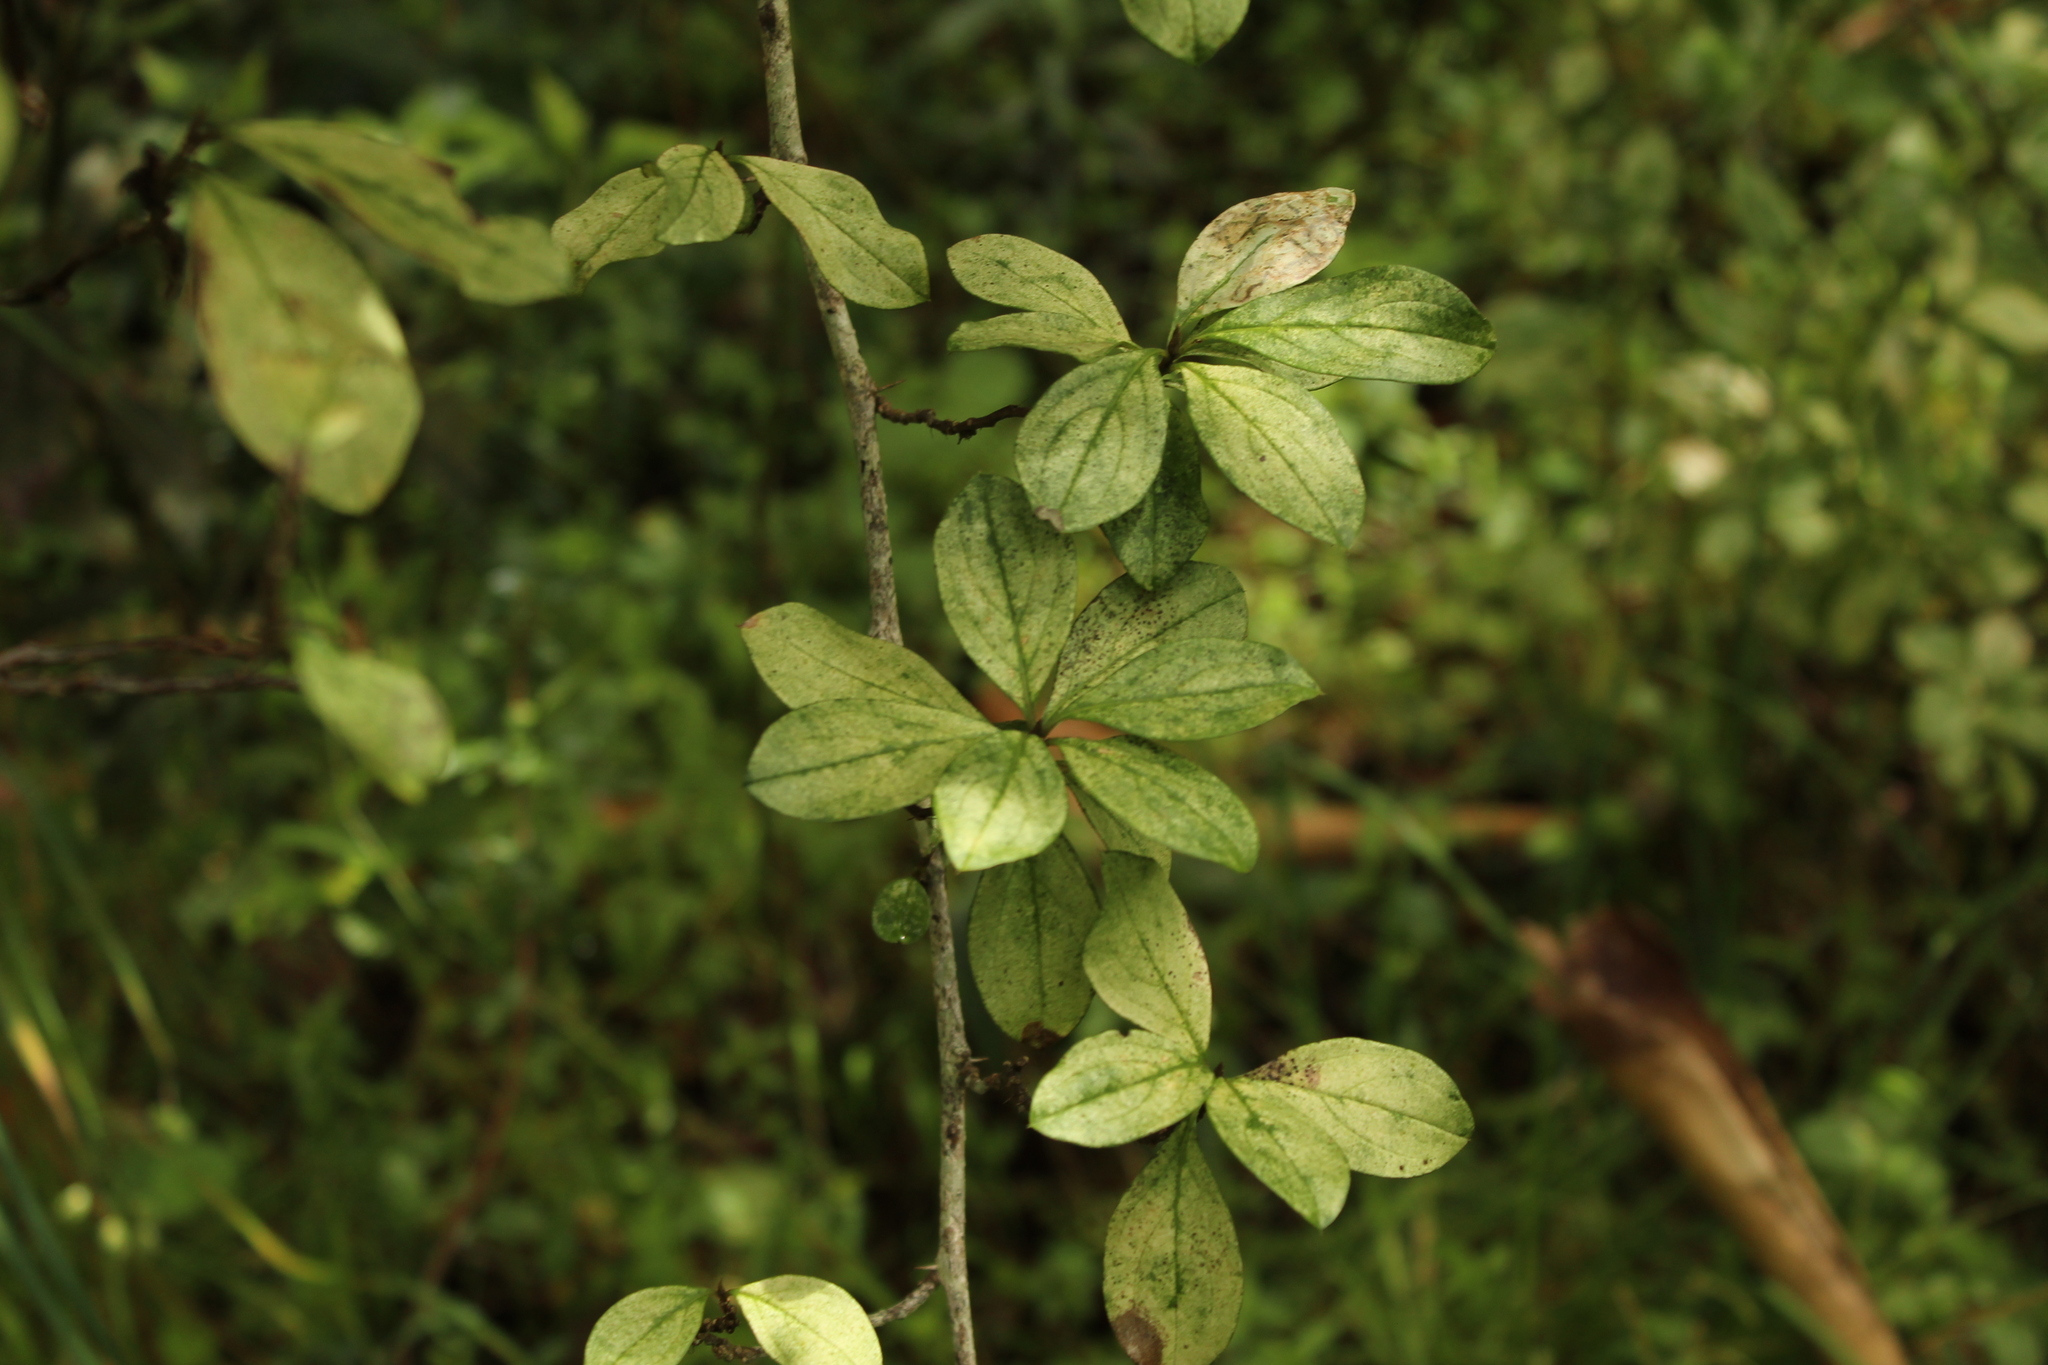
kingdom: Plantae
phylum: Tracheophyta
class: Magnoliopsida
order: Asterales
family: Asteraceae
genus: Barnadesia
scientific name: Barnadesia spinosa
